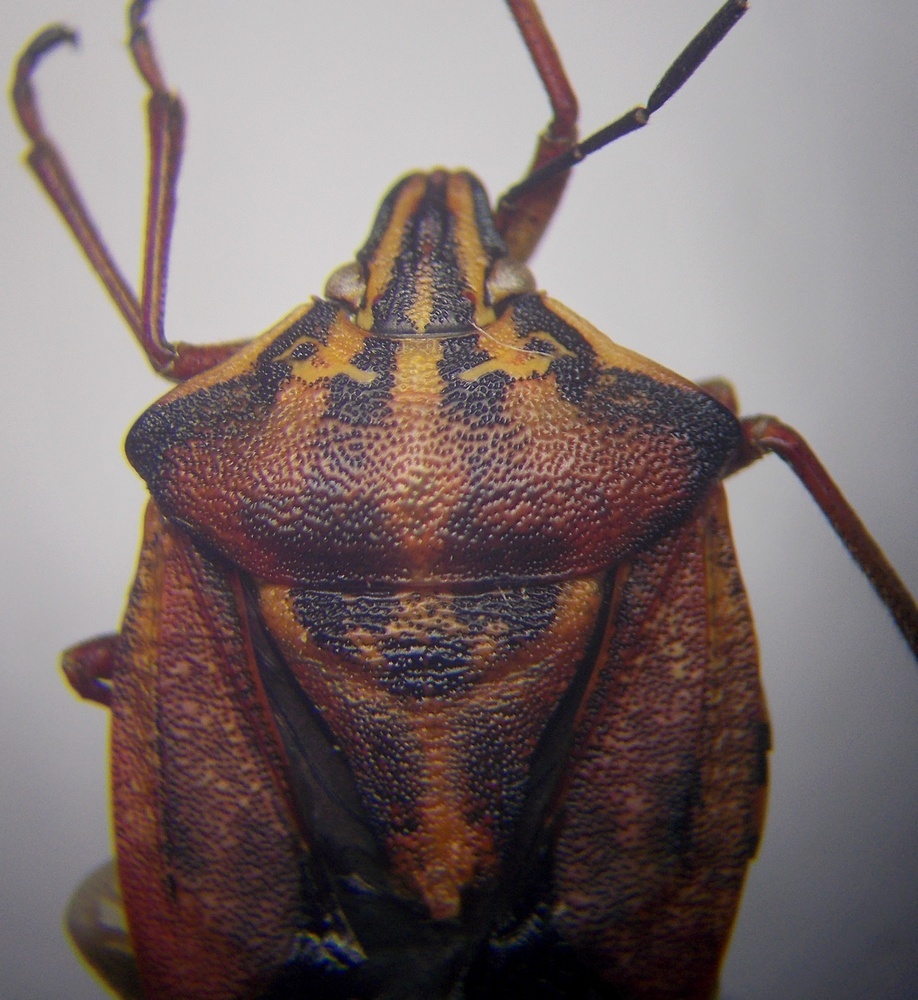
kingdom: Animalia
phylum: Arthropoda
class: Insecta
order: Hemiptera
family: Pentatomidae
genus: Carpocoris
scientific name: Carpocoris mediterraneus
